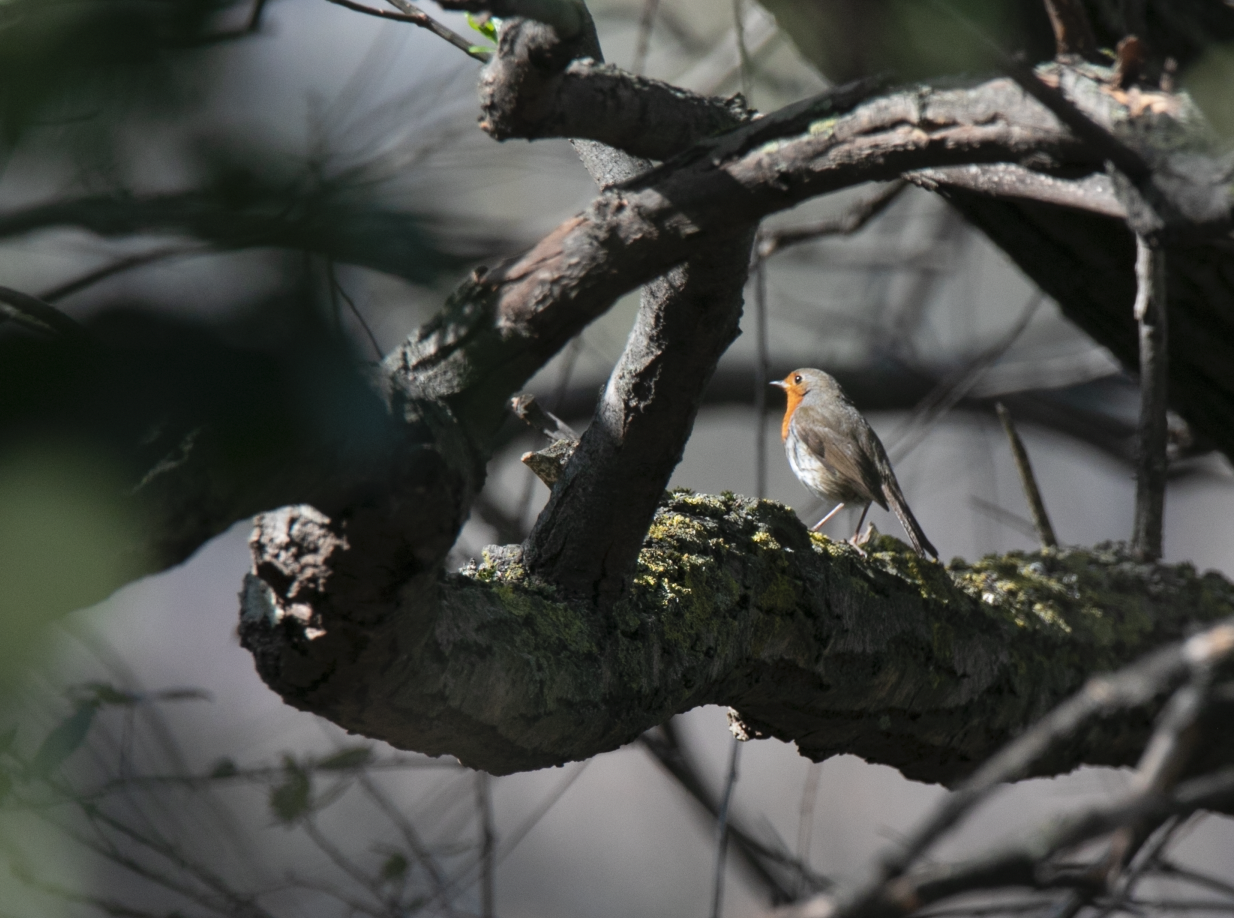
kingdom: Animalia
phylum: Chordata
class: Aves
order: Passeriformes
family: Muscicapidae
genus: Erithacus
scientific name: Erithacus rubecula
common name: European robin
